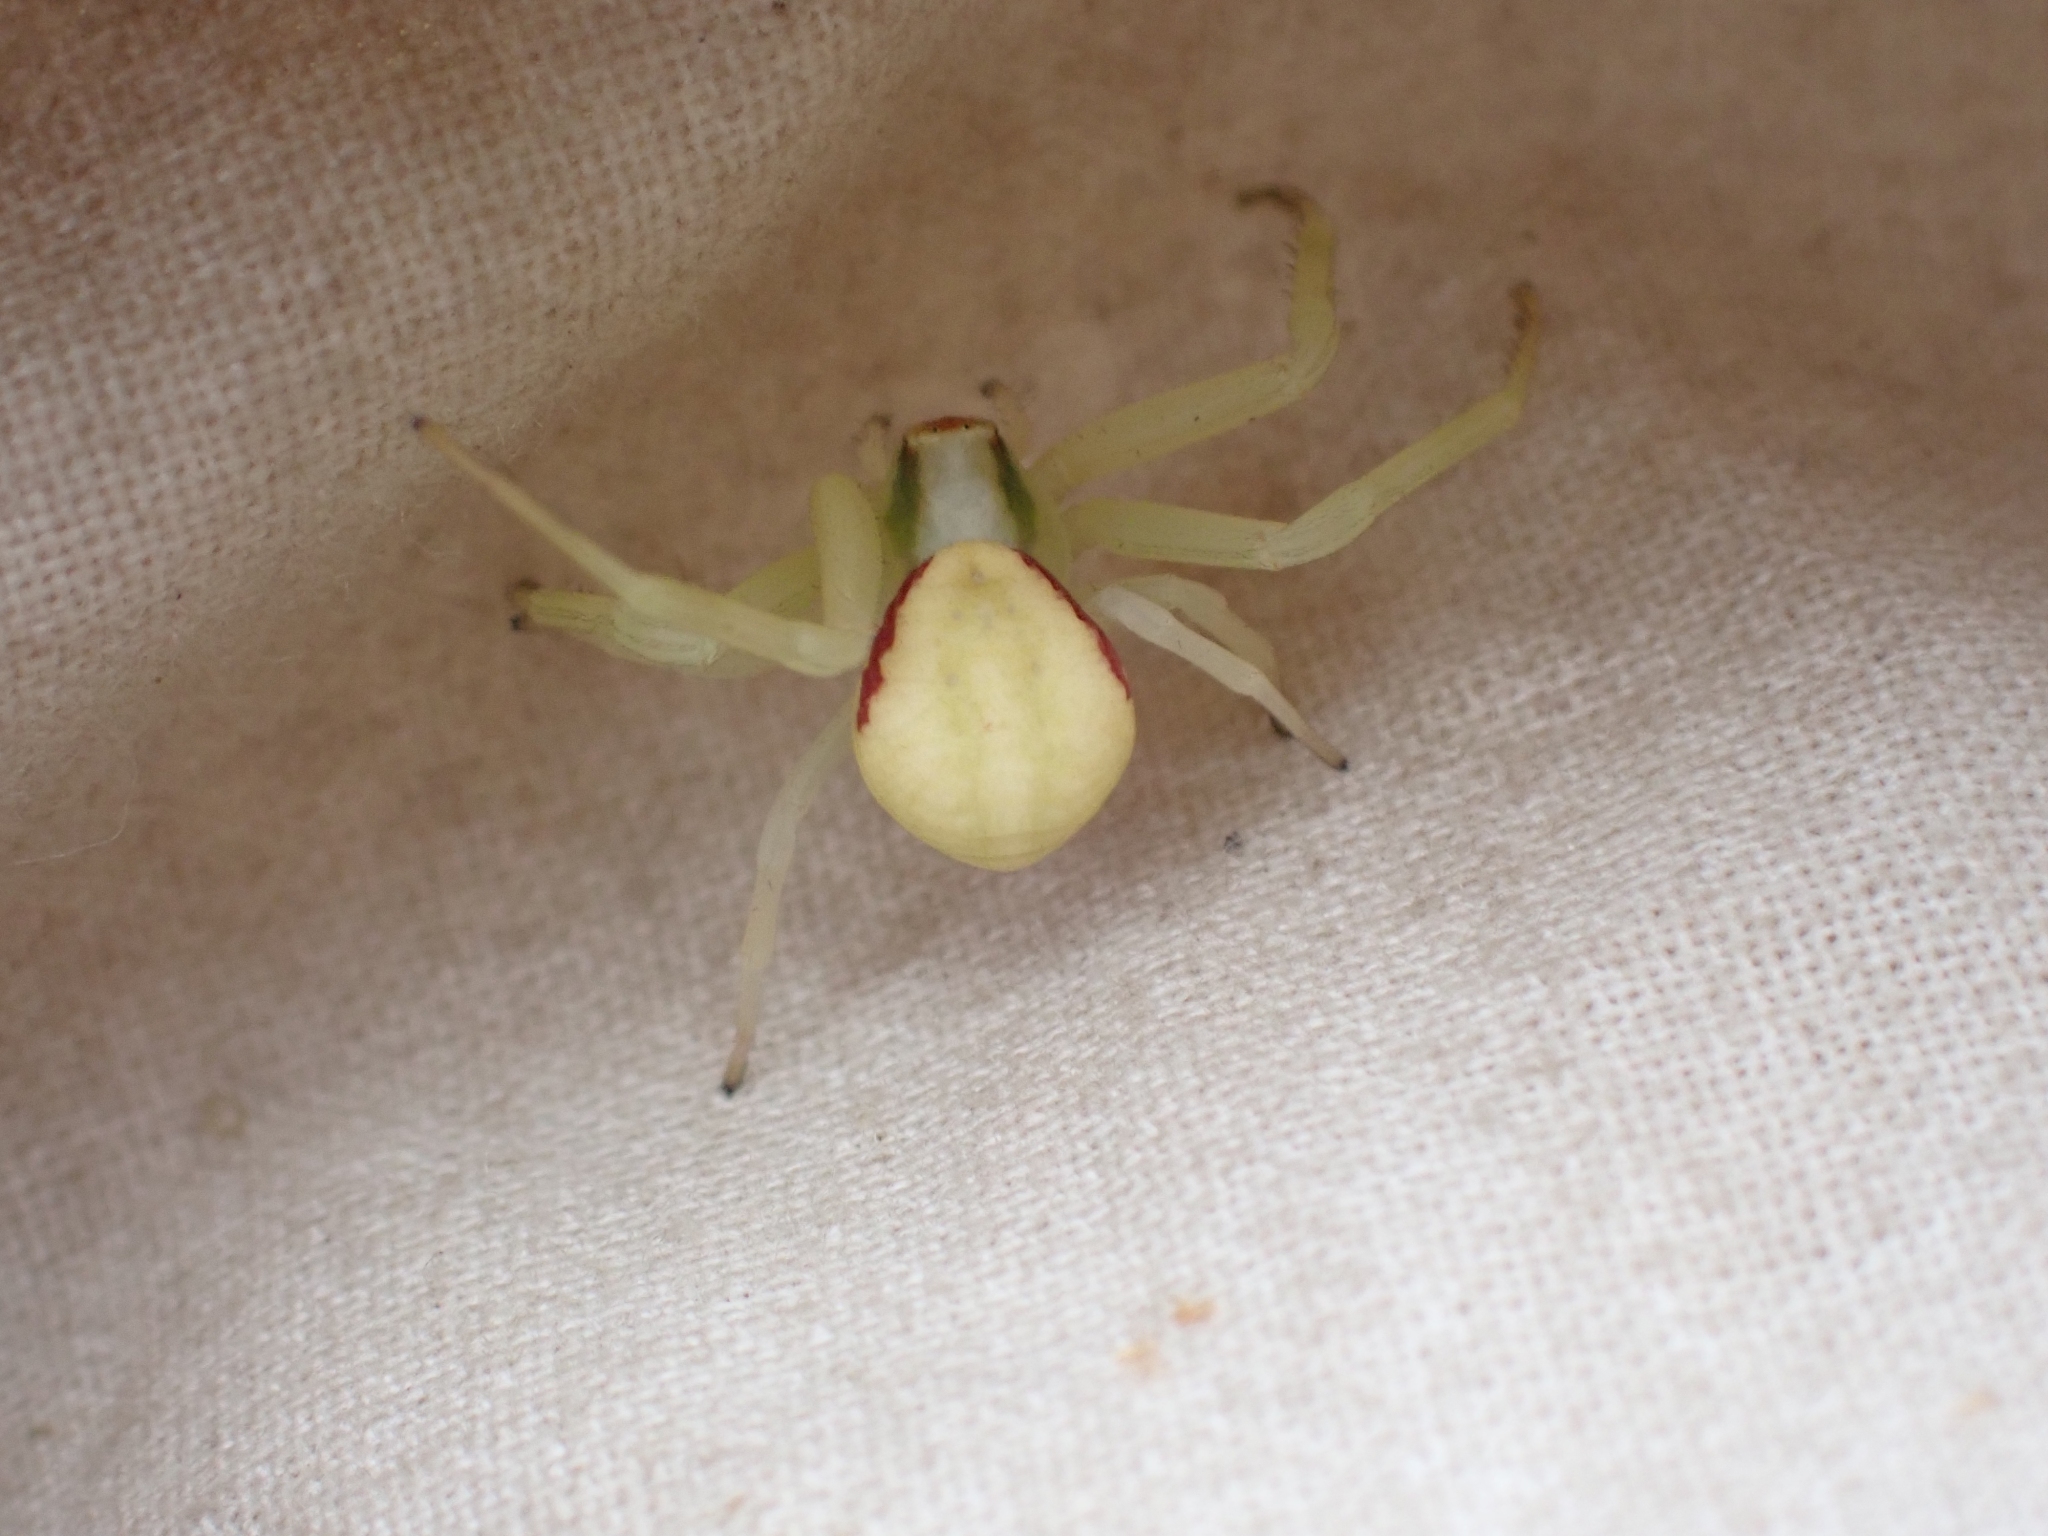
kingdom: Animalia
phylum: Arthropoda
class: Arachnida
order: Araneae
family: Thomisidae
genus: Misumena
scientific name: Misumena vatia
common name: Goldenrod crab spider
